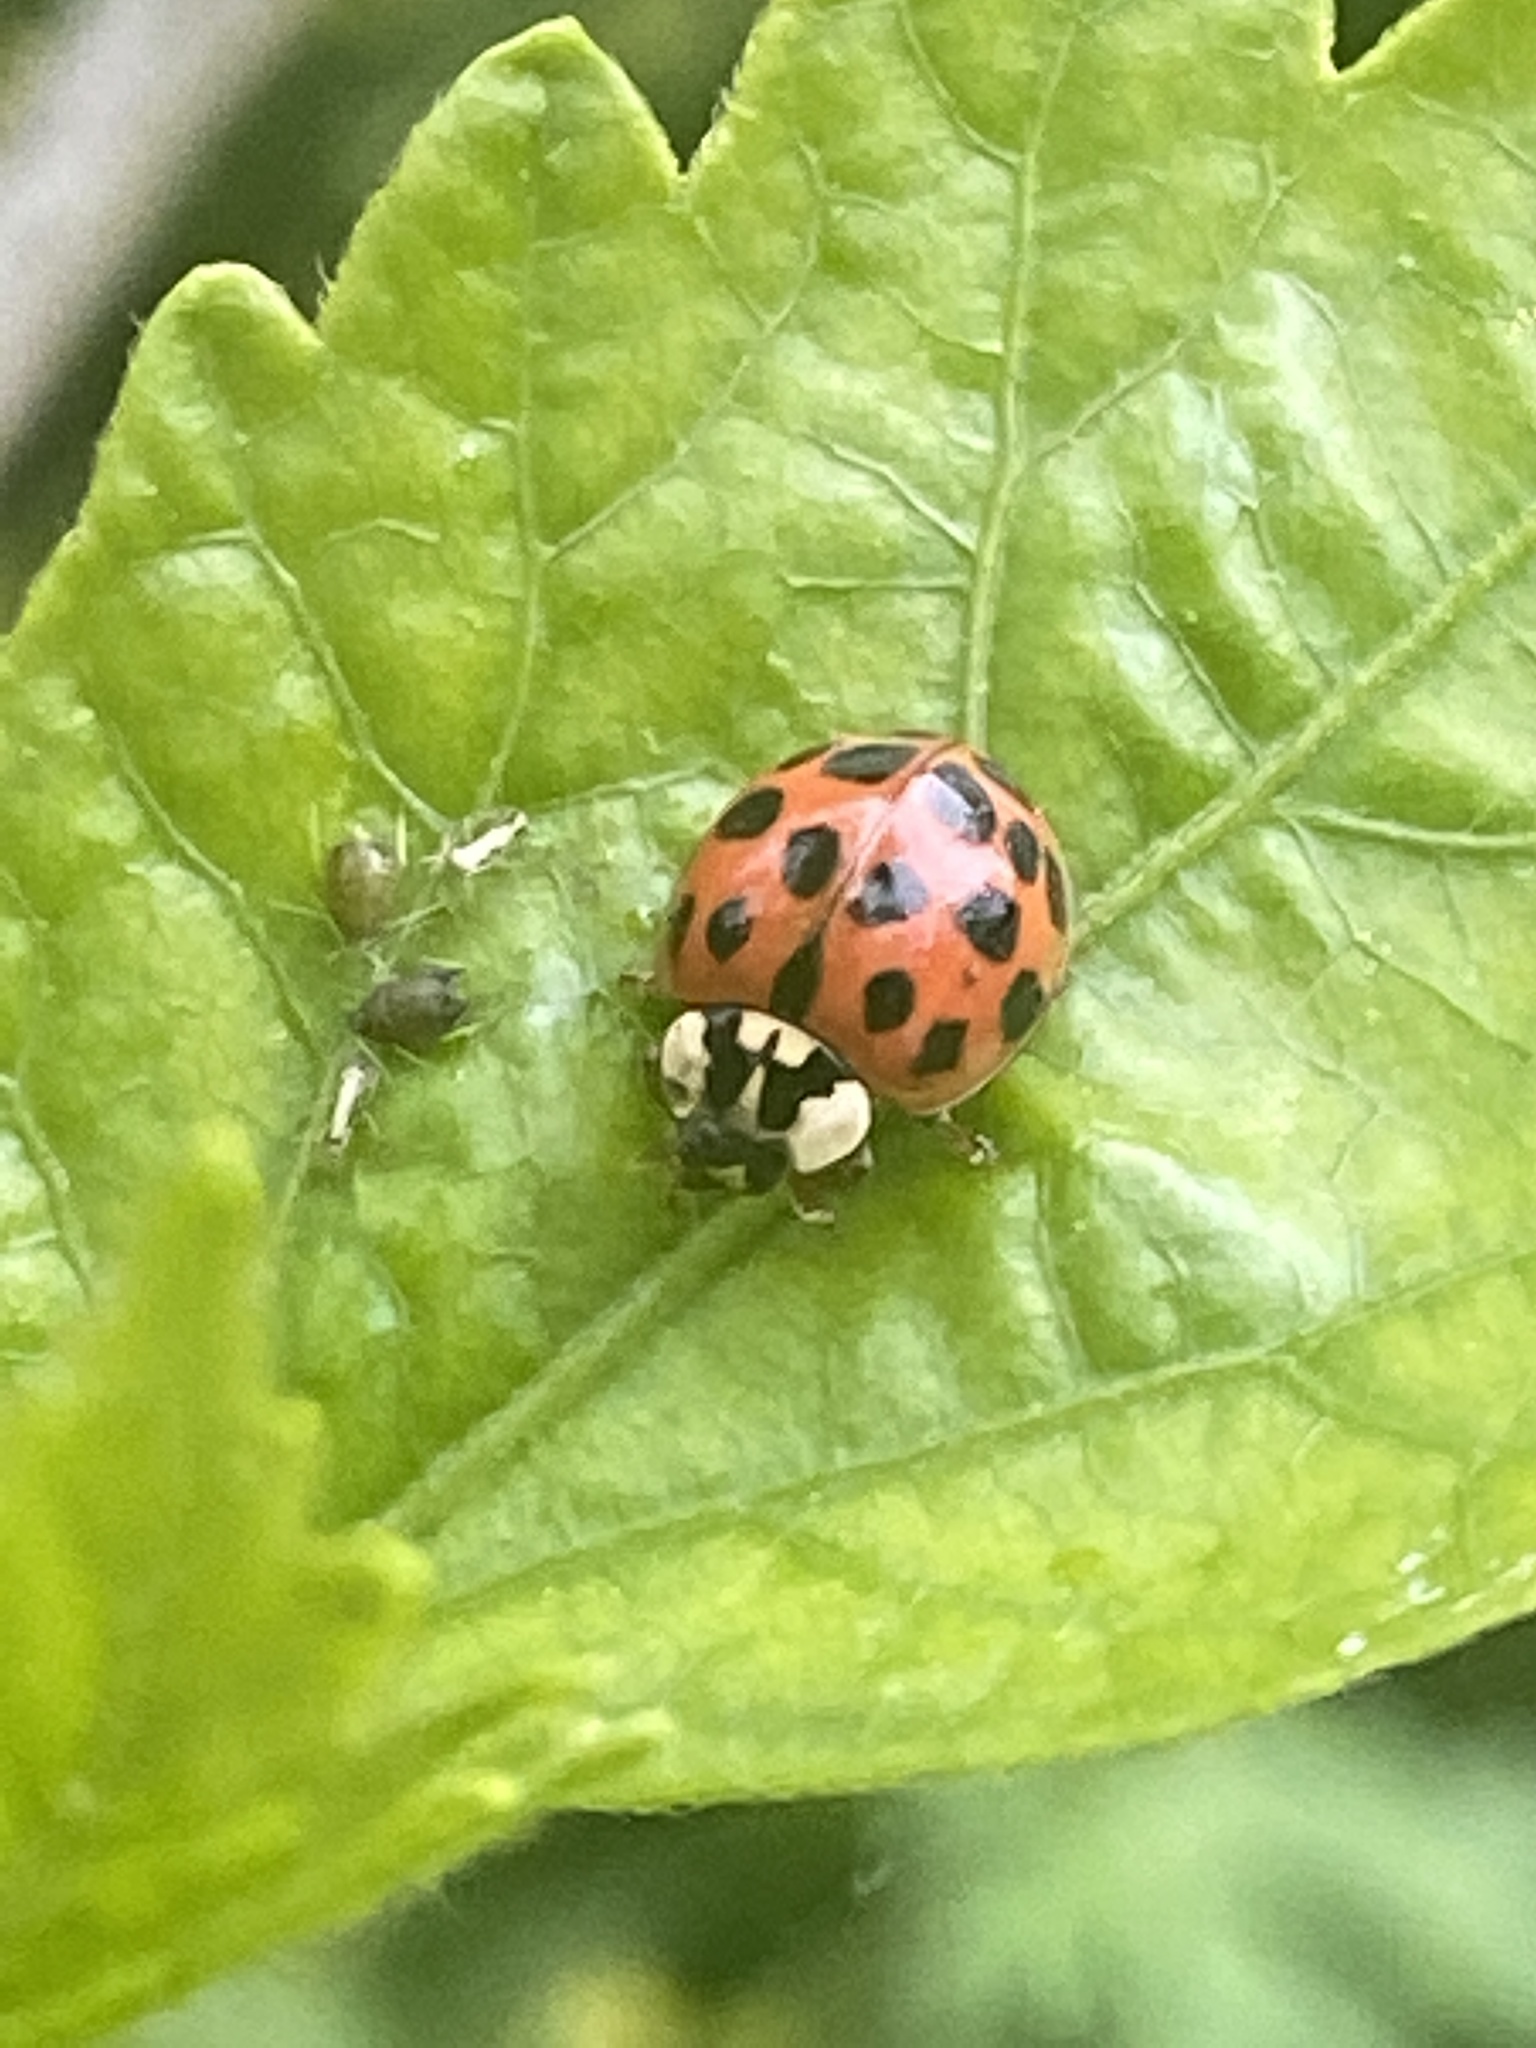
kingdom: Animalia
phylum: Arthropoda
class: Insecta
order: Coleoptera
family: Coccinellidae
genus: Harmonia
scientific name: Harmonia axyridis
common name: Harlequin ladybird
